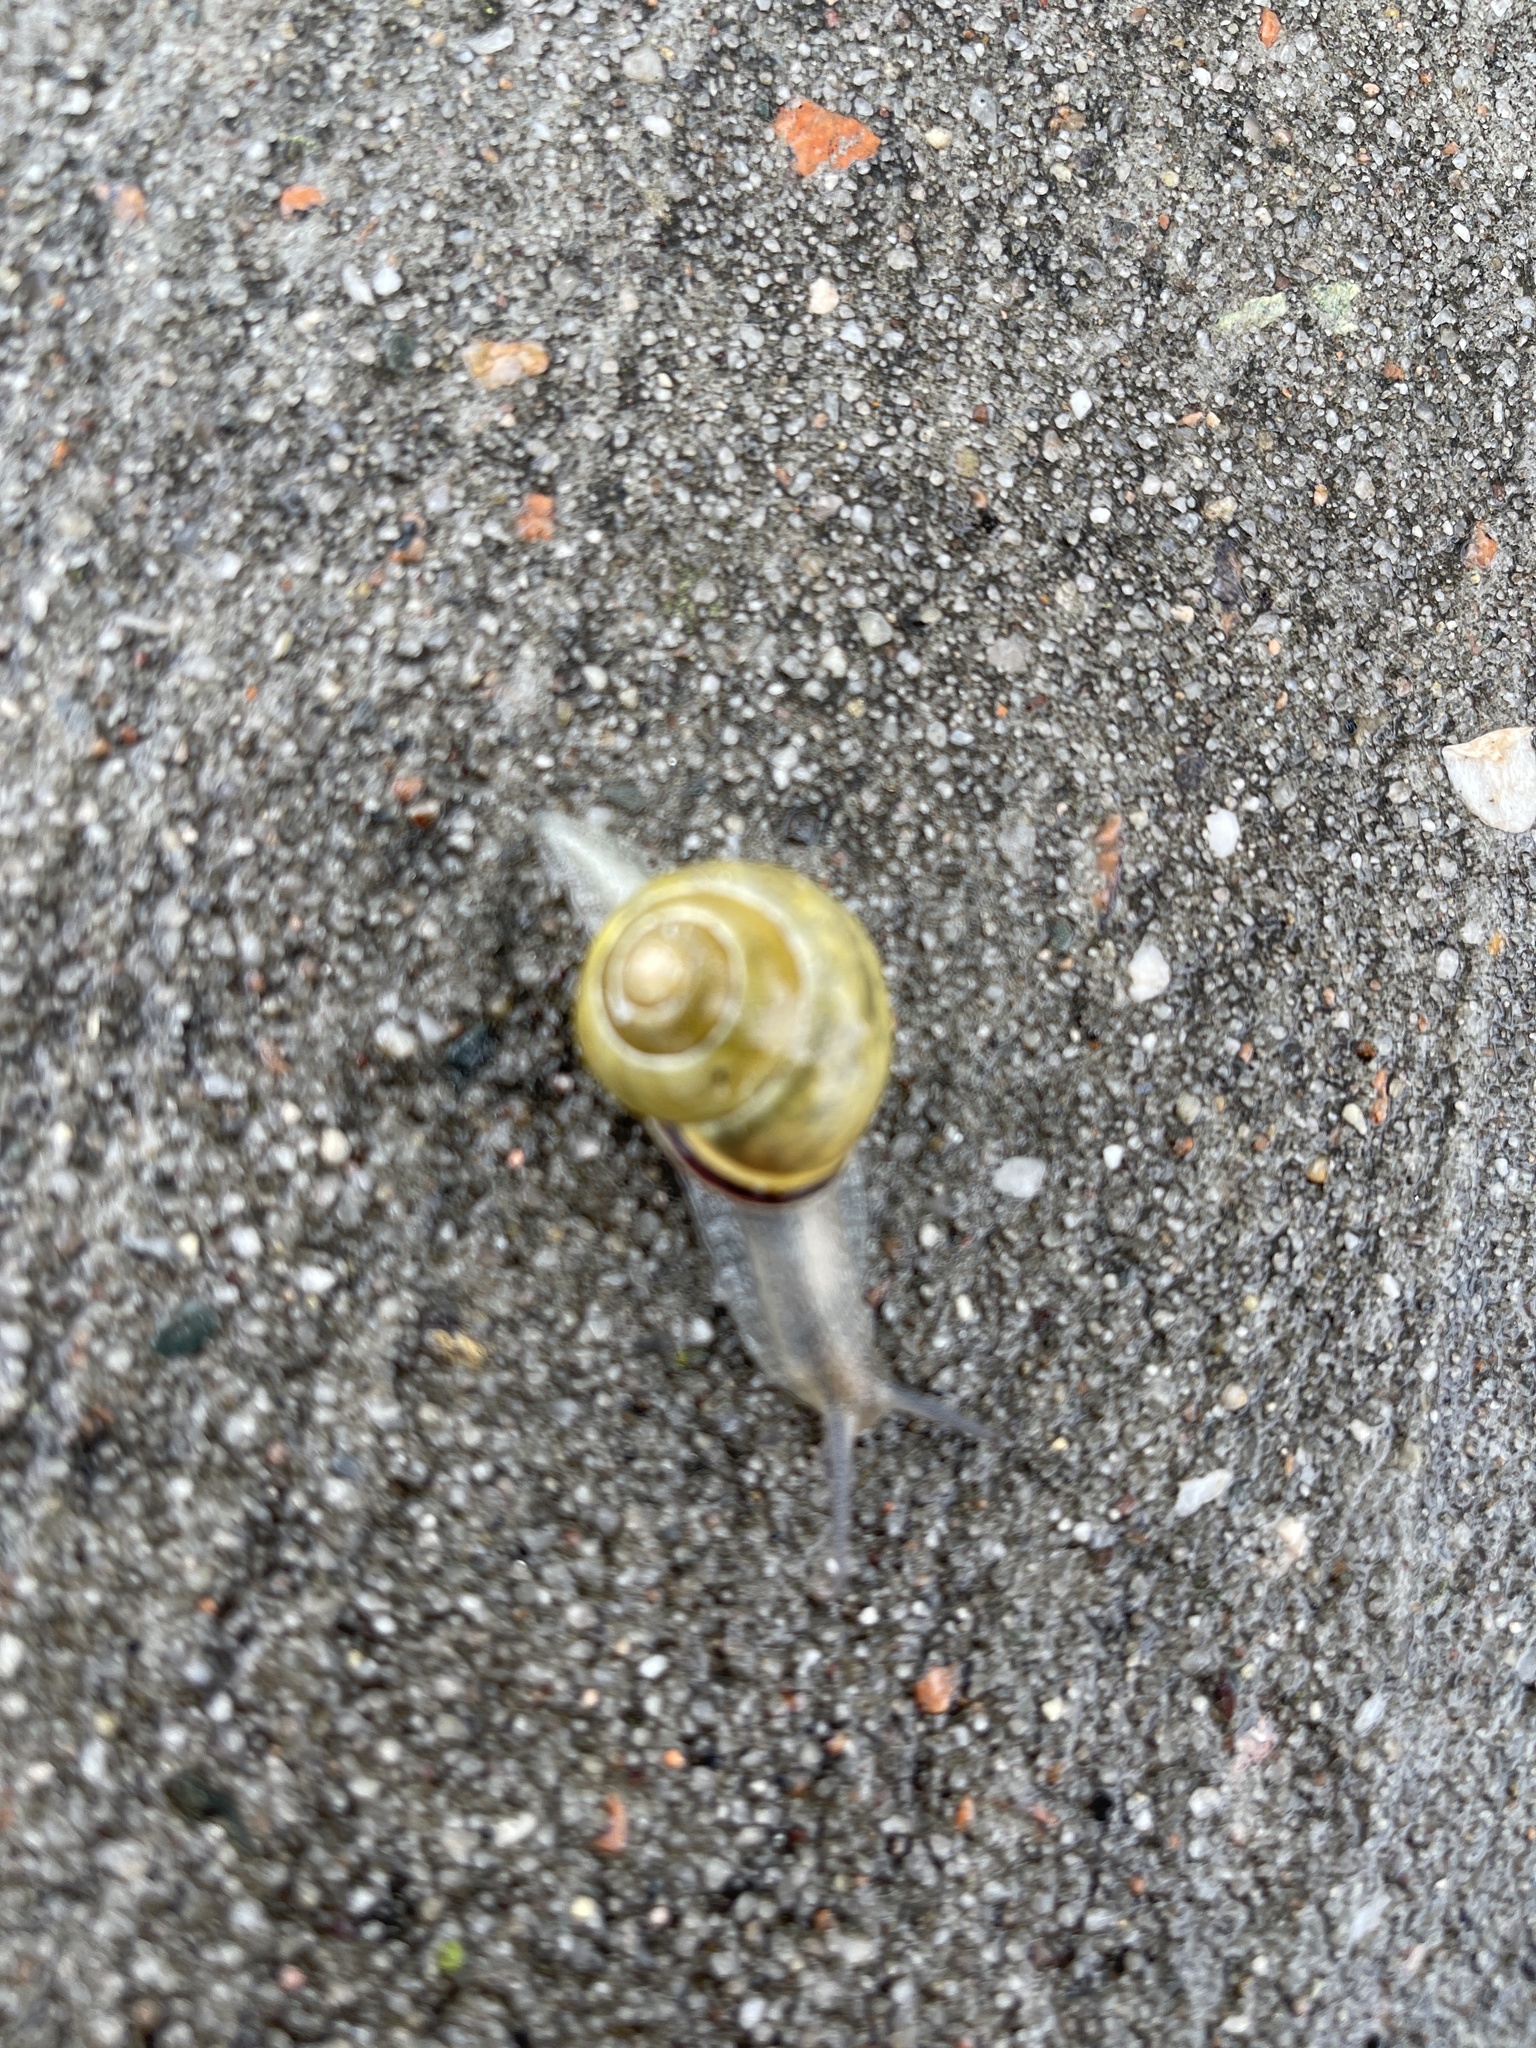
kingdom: Animalia
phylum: Mollusca
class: Gastropoda
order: Stylommatophora
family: Helicidae
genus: Cepaea
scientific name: Cepaea nemoralis
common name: Grovesnail
